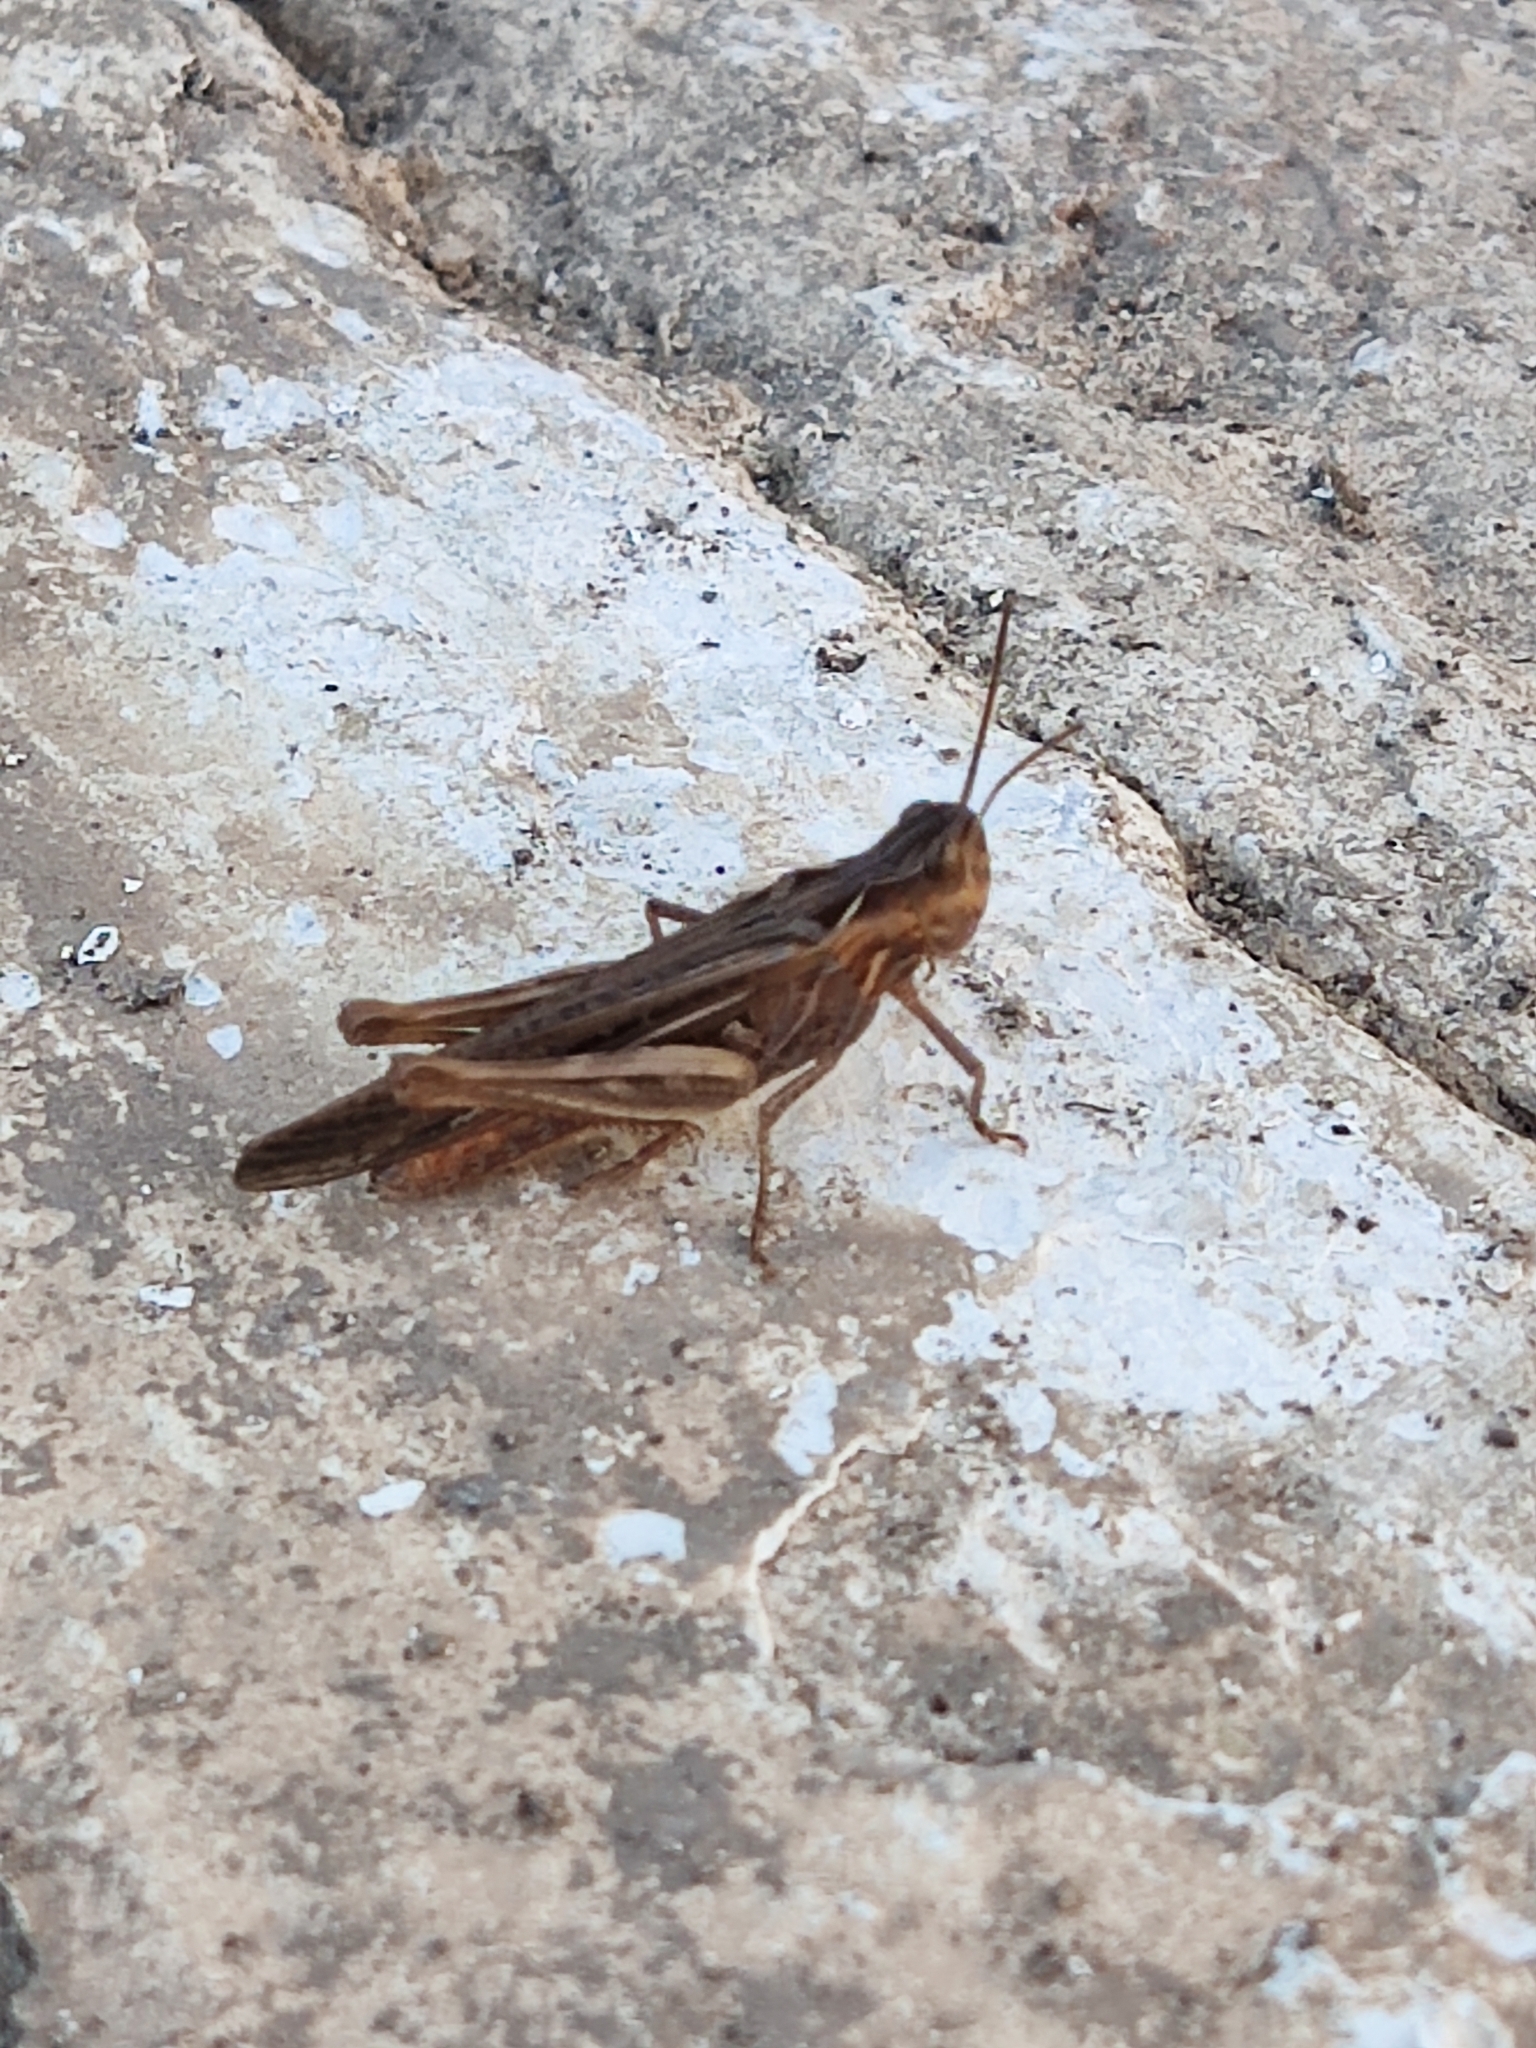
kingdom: Animalia
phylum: Arthropoda
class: Insecta
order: Orthoptera
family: Acrididae
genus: Chorthippus
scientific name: Chorthippus maritimus
